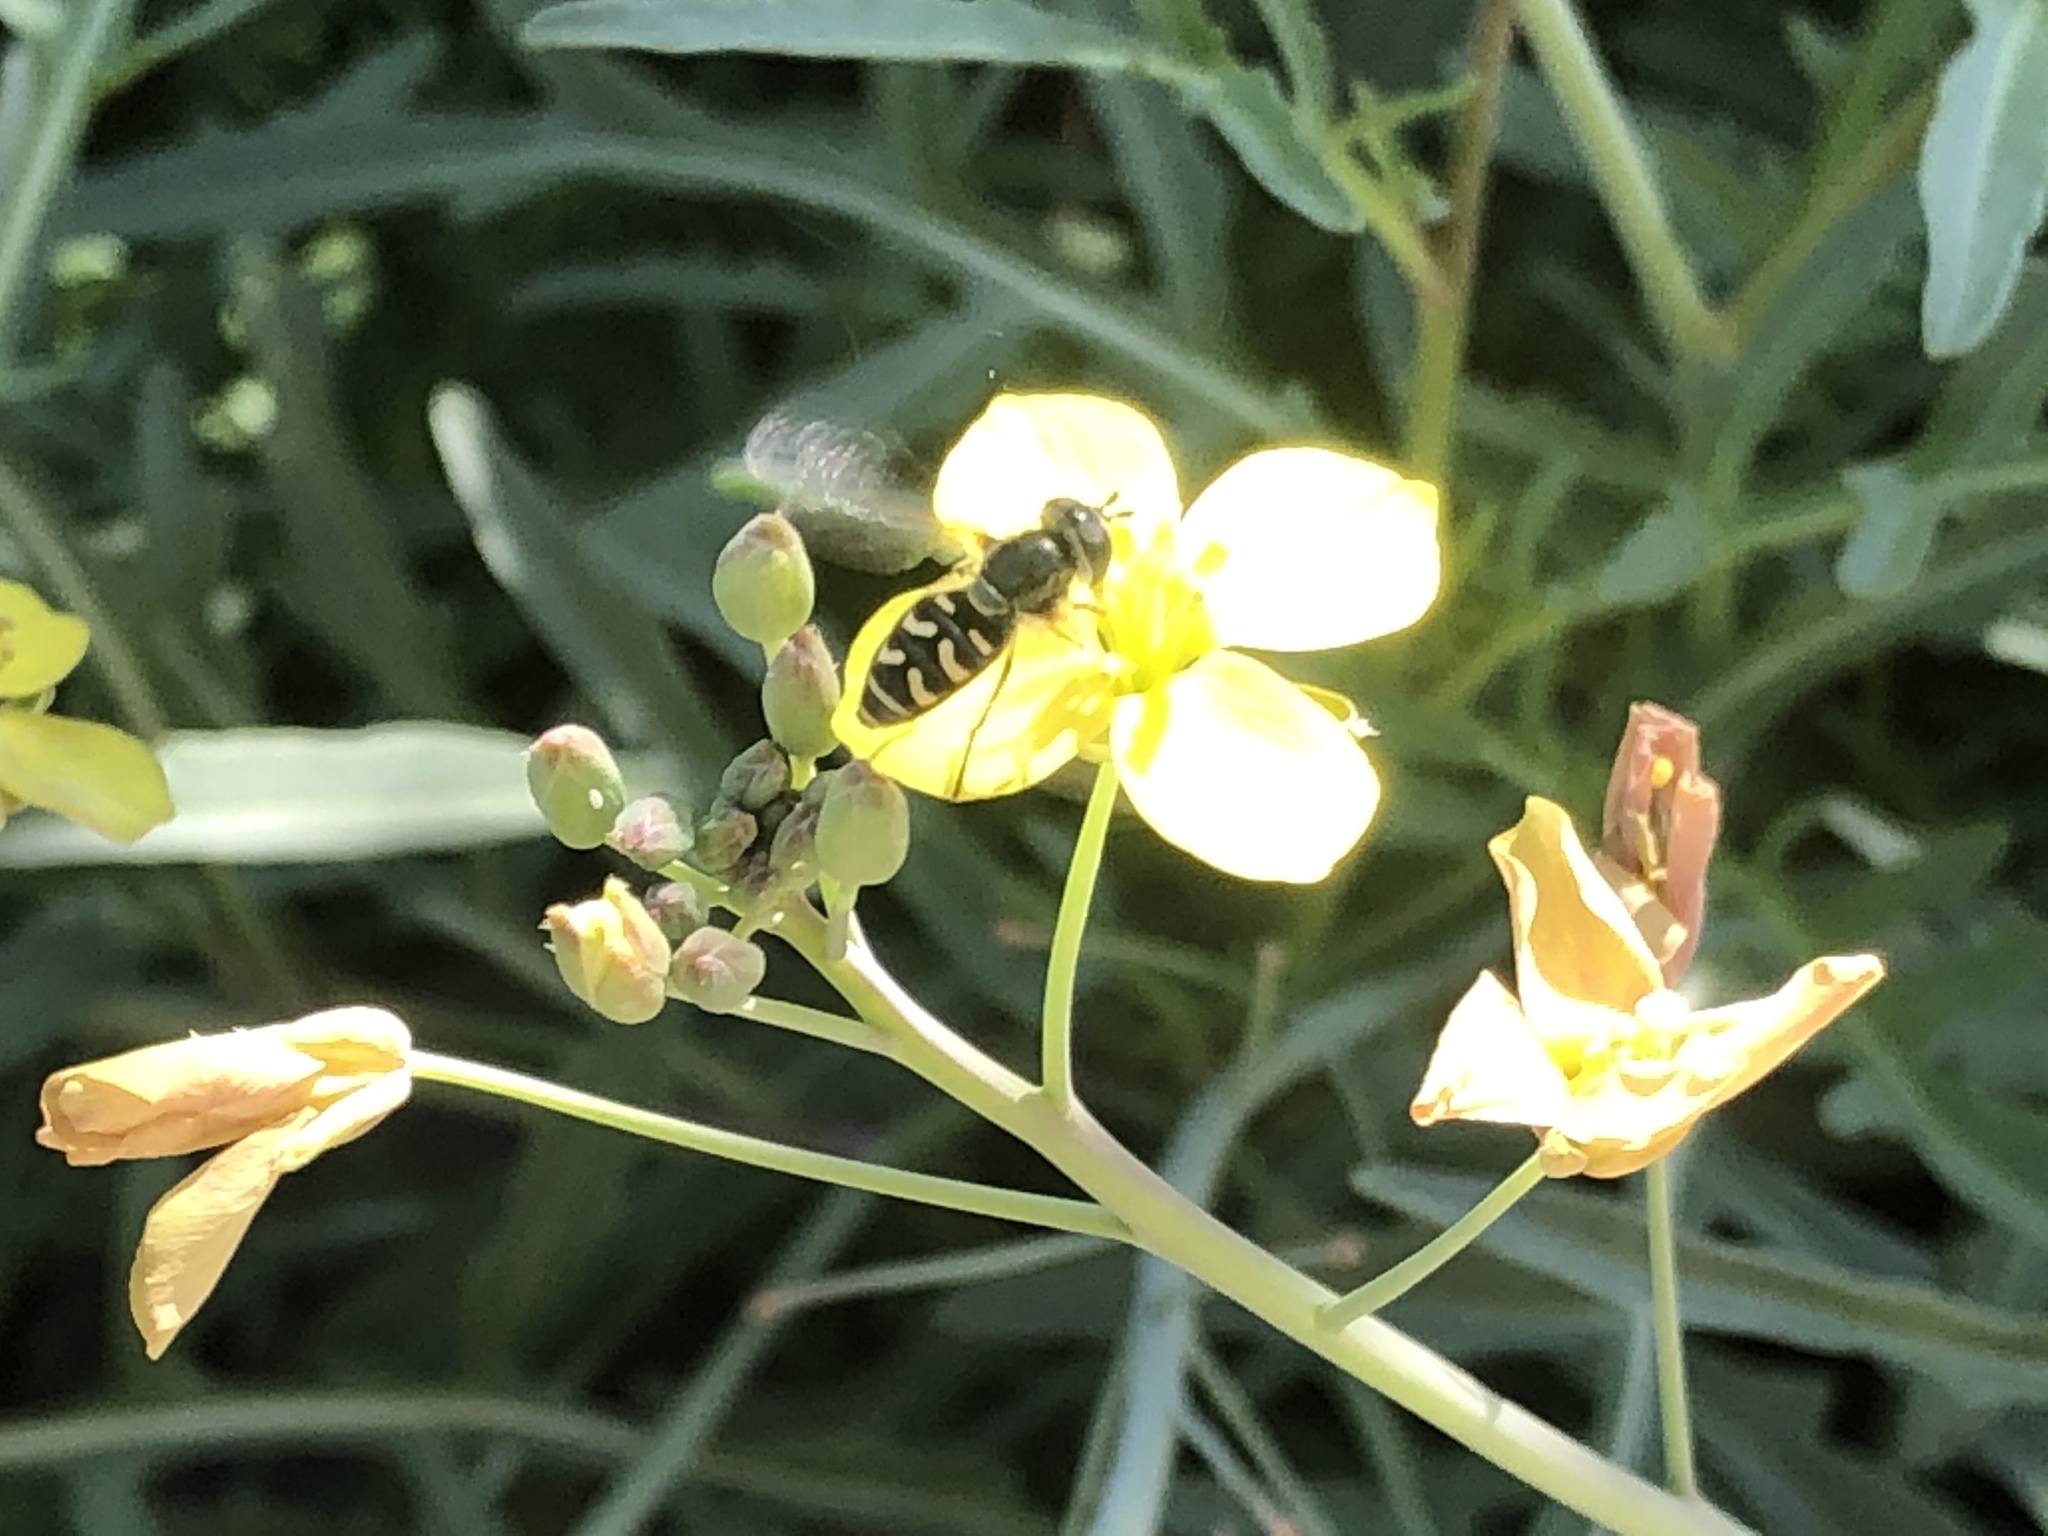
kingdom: Animalia
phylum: Arthropoda
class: Insecta
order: Diptera
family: Syrphidae
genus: Eupeodes
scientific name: Eupeodes volucris
